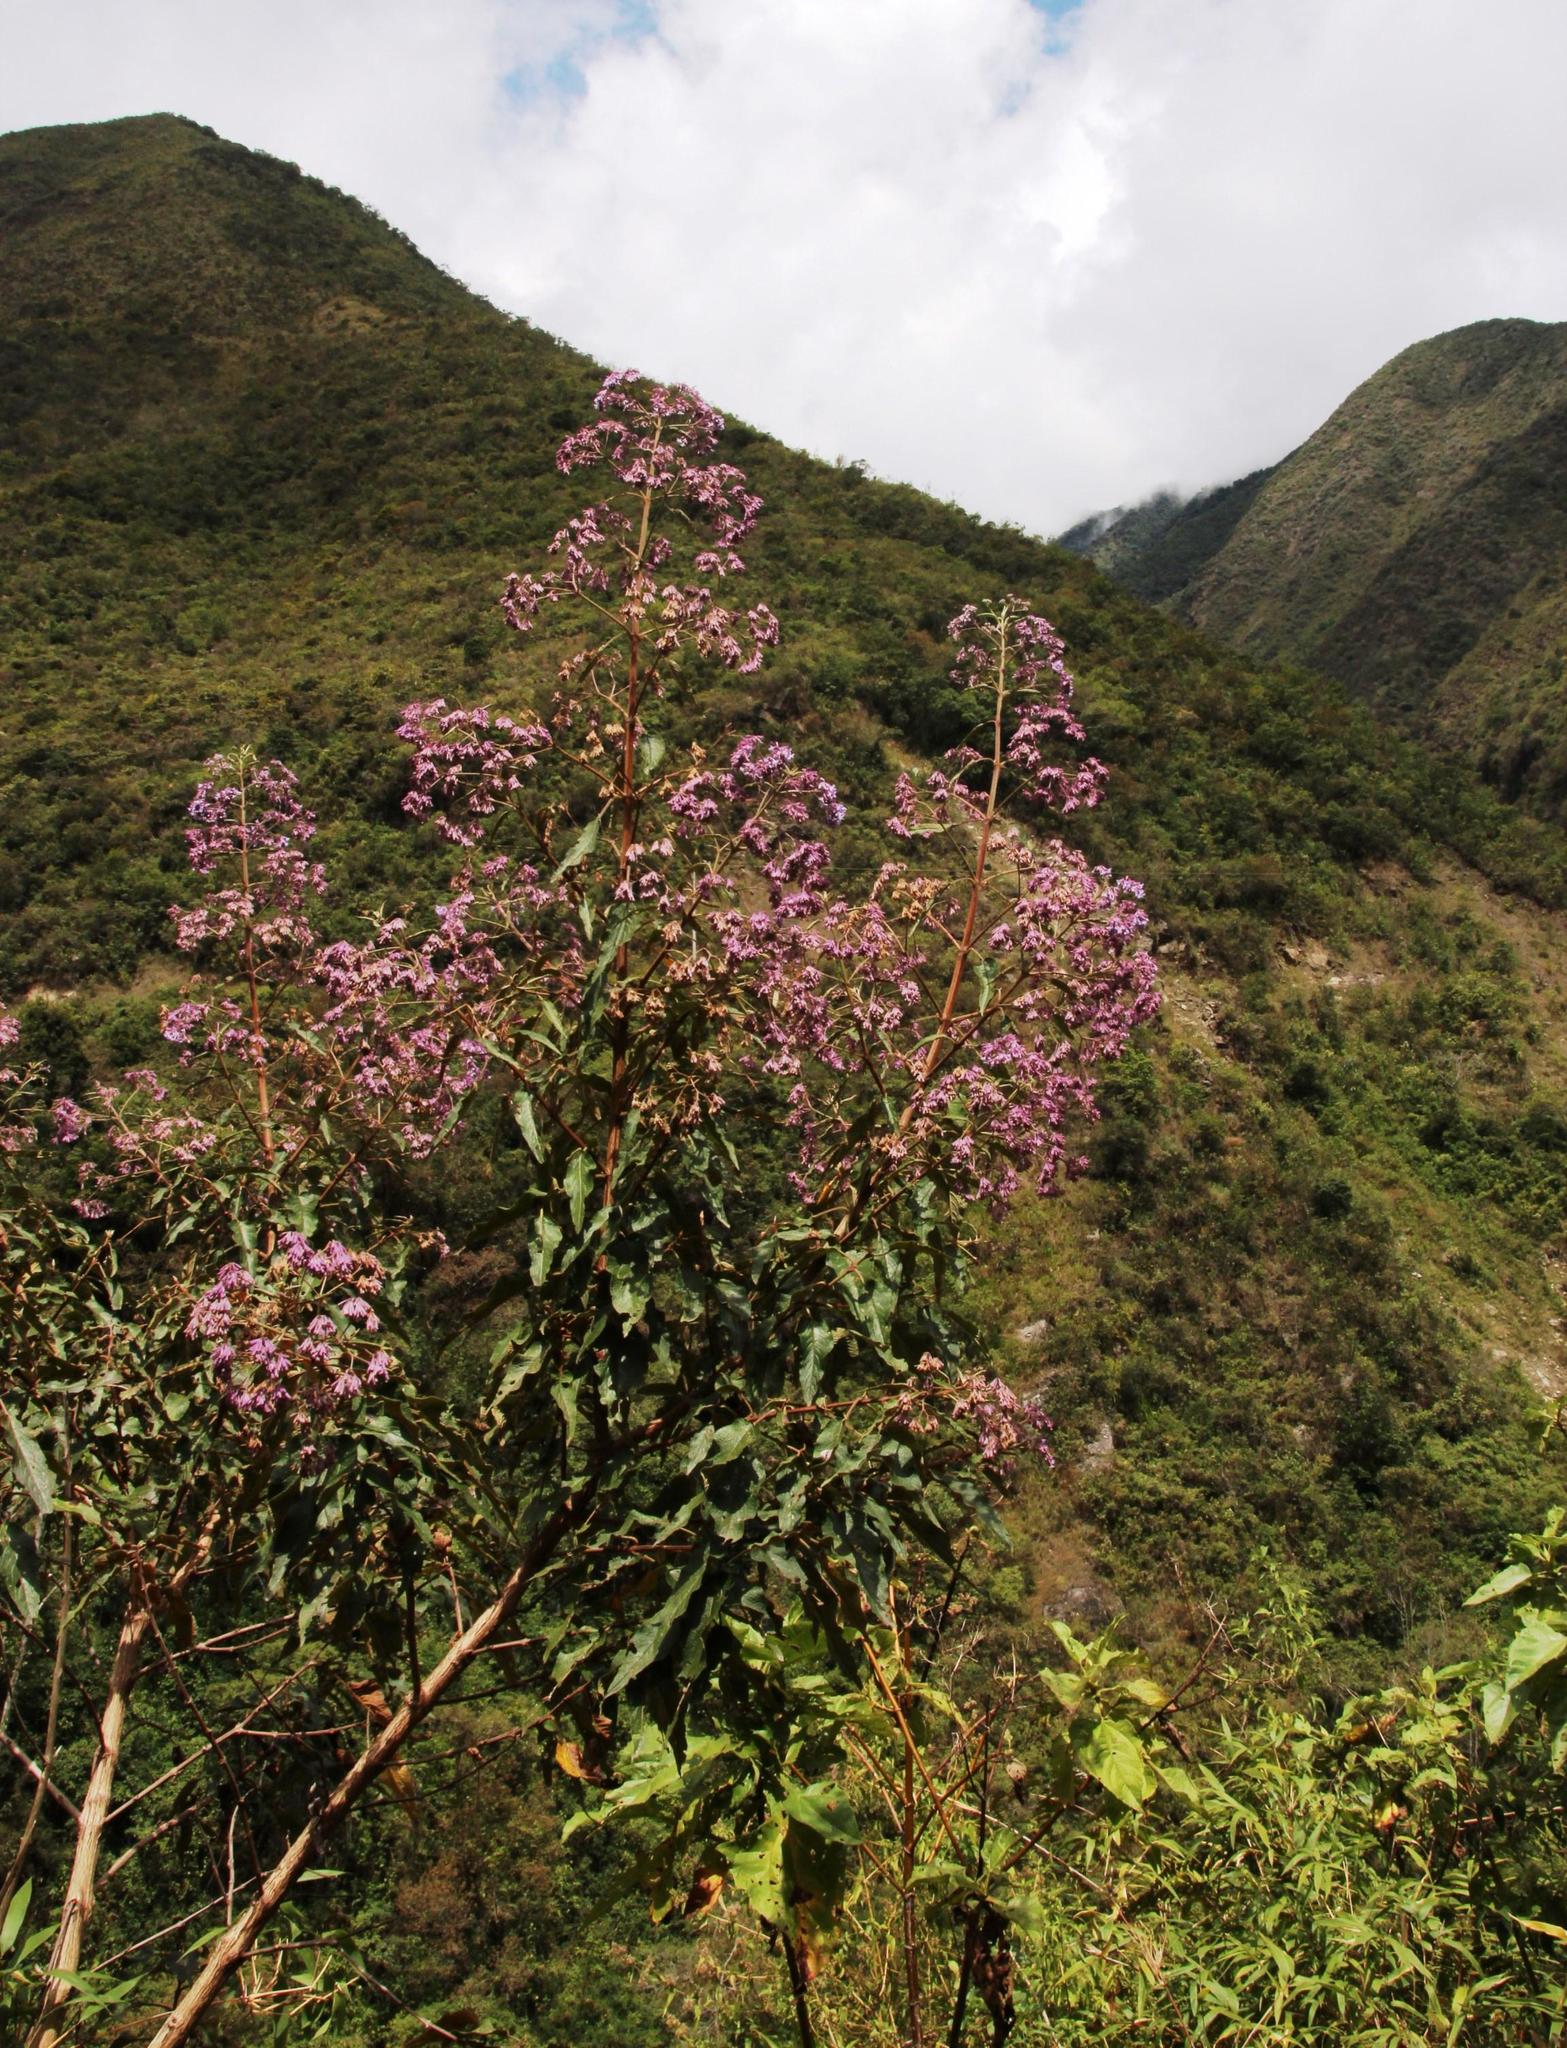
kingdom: Plantae
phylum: Tracheophyta
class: Magnoliopsida
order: Lamiales
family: Lamiaceae
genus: Condea
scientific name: Condea tafallae
